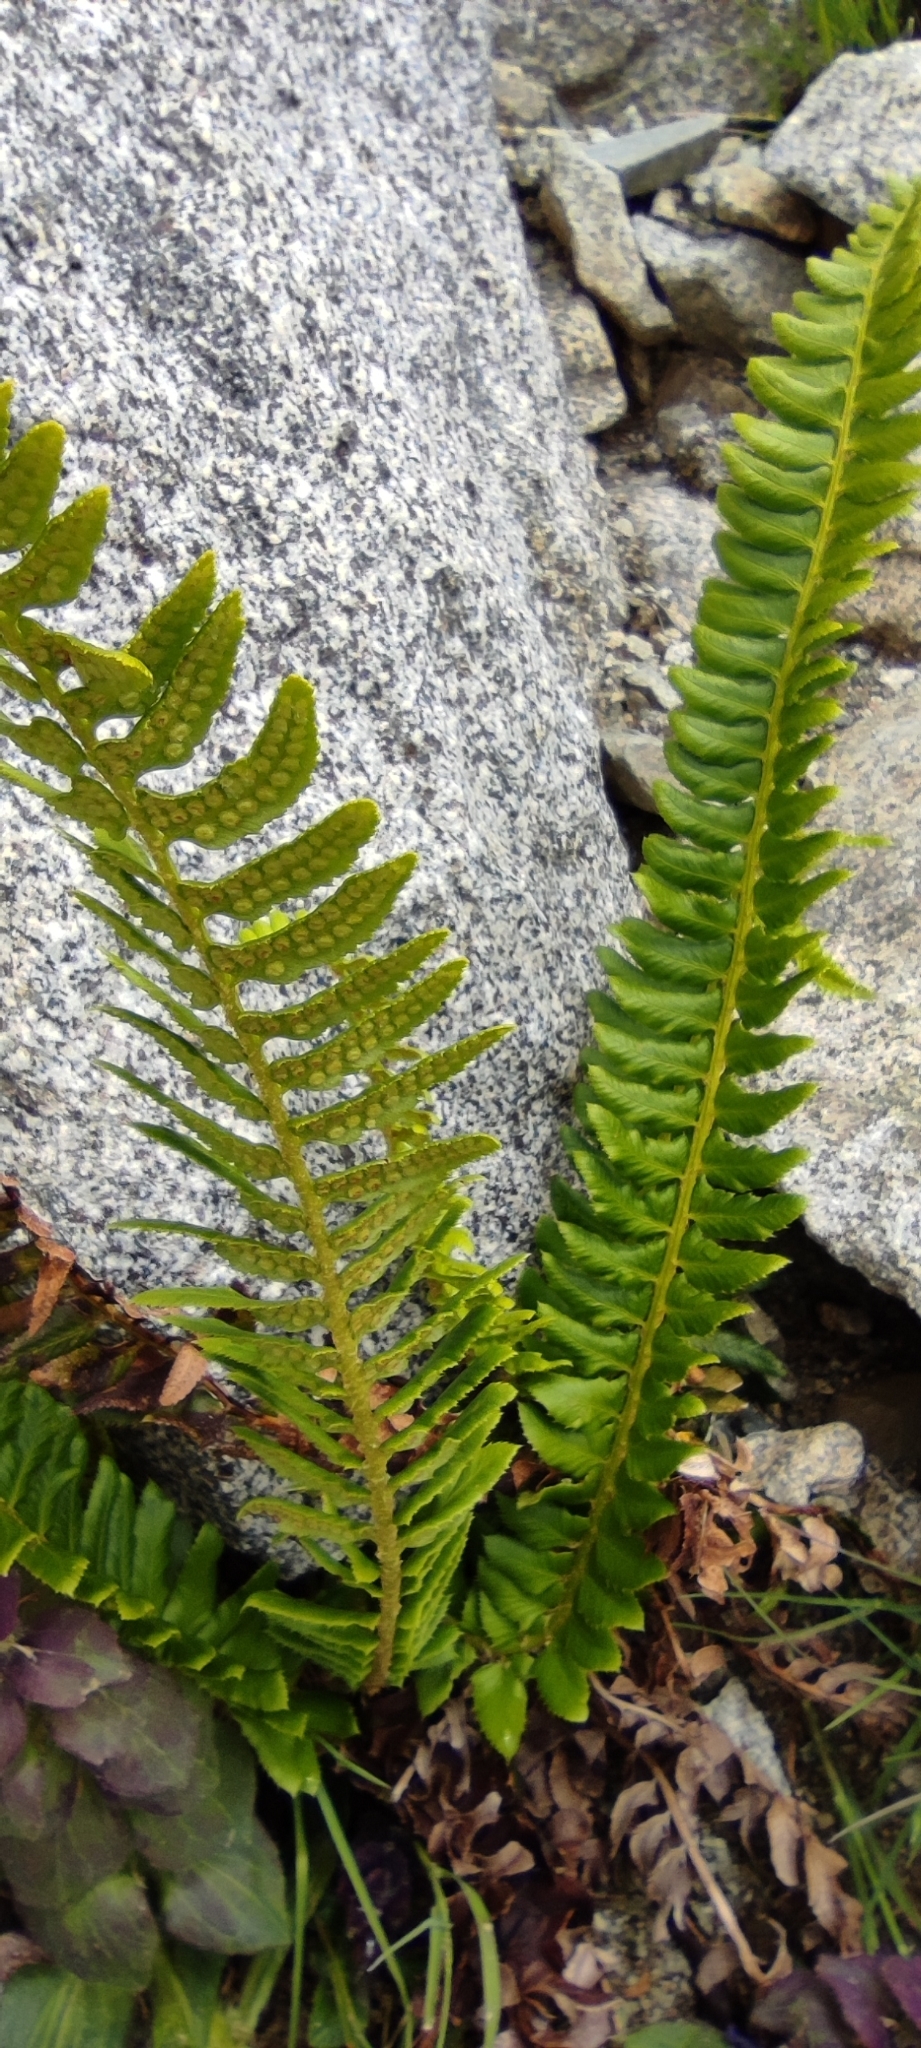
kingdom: Plantae
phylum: Tracheophyta
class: Polypodiopsida
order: Polypodiales
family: Dryopteridaceae
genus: Polystichum
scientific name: Polystichum lonchitis
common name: Holly fern
